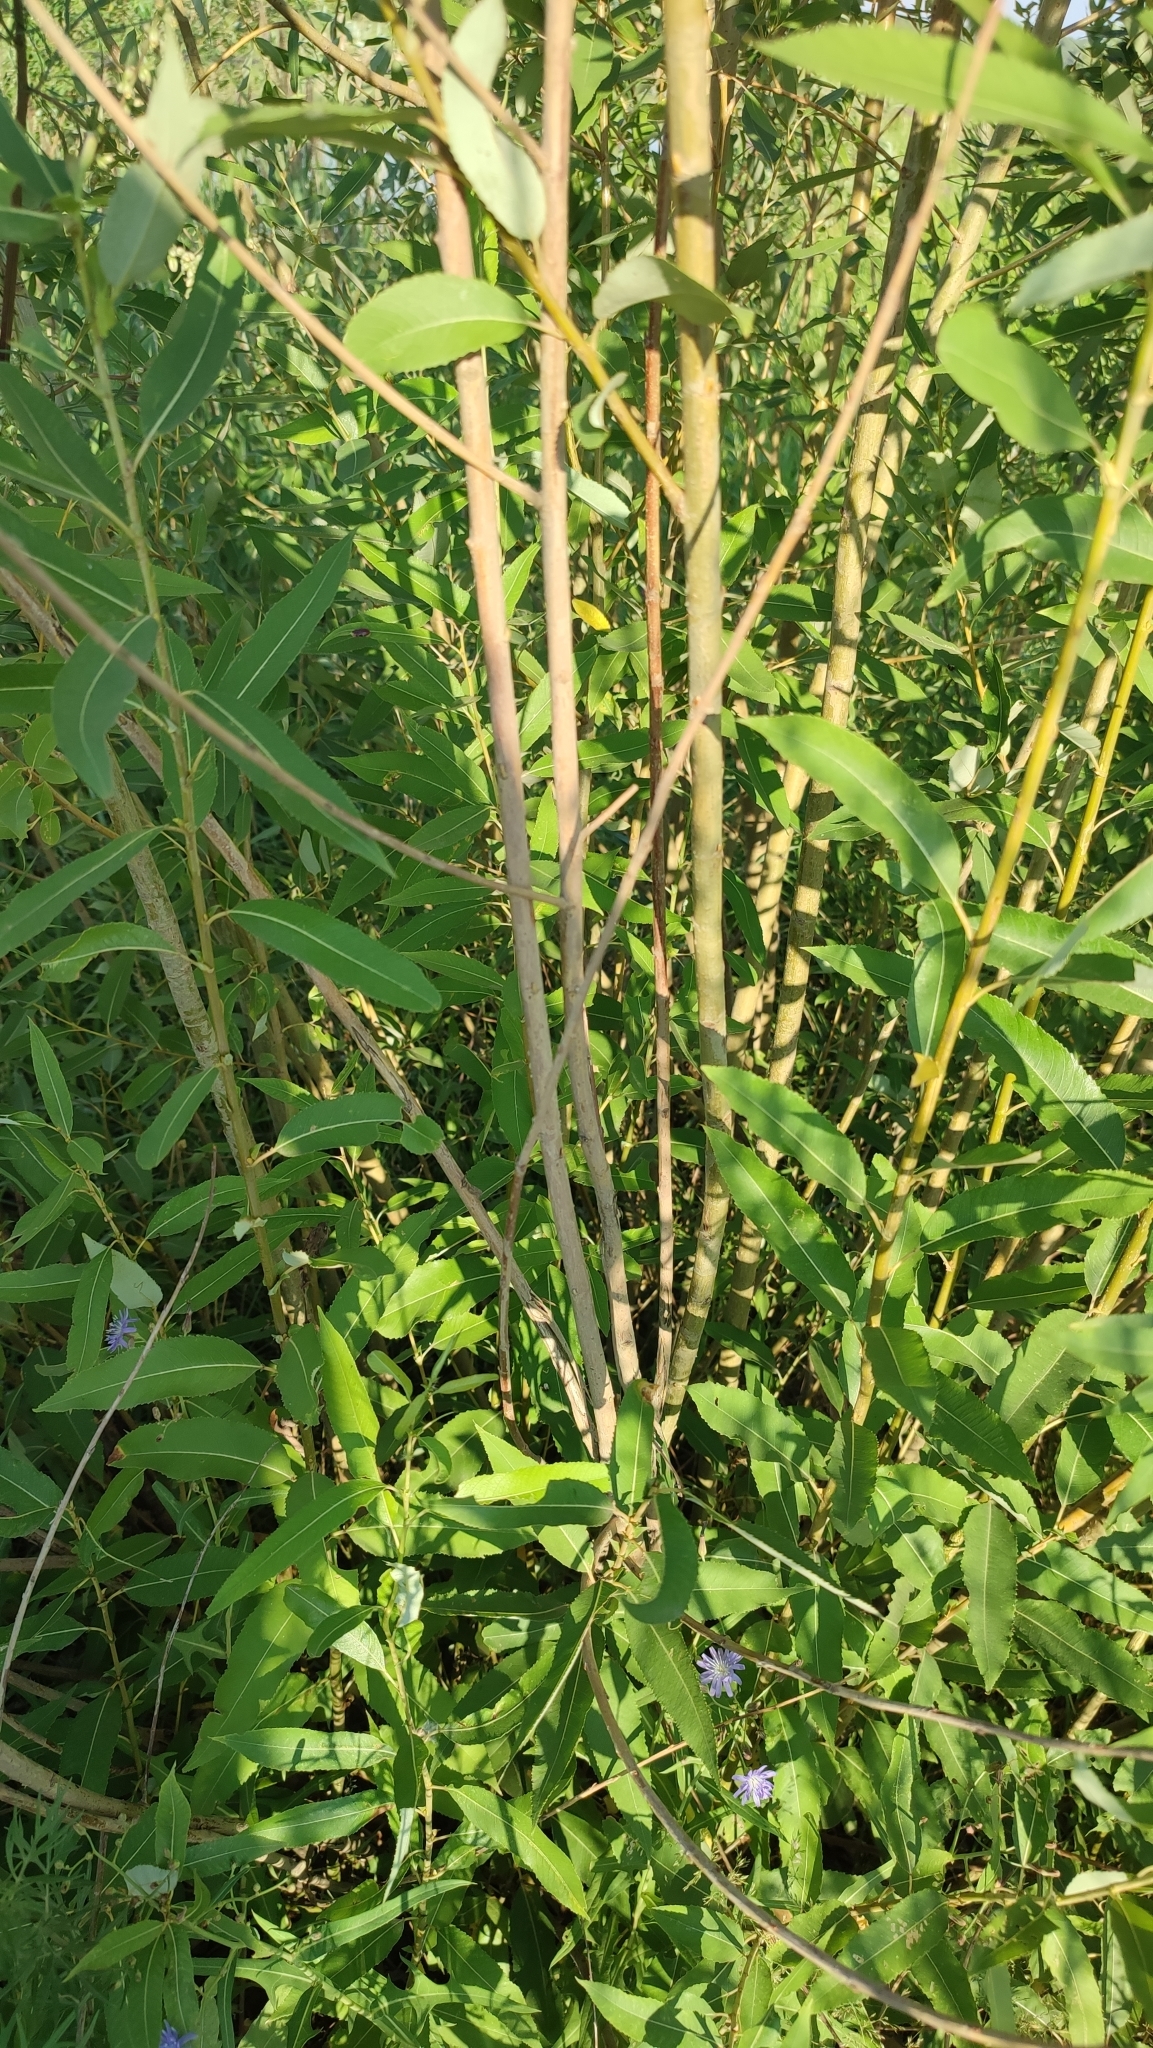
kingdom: Plantae
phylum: Tracheophyta
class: Magnoliopsida
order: Malpighiales
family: Salicaceae
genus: Salix
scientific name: Salix triandra
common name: Almond willow
